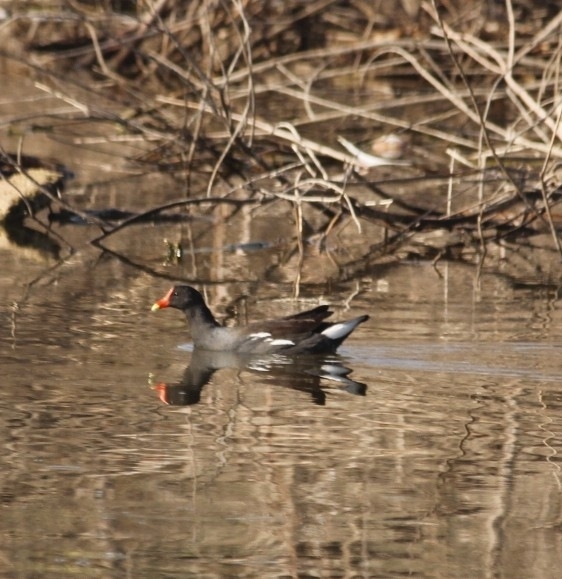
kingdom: Animalia
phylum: Chordata
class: Aves
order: Gruiformes
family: Rallidae
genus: Gallinula
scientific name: Gallinula chloropus
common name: Common moorhen
